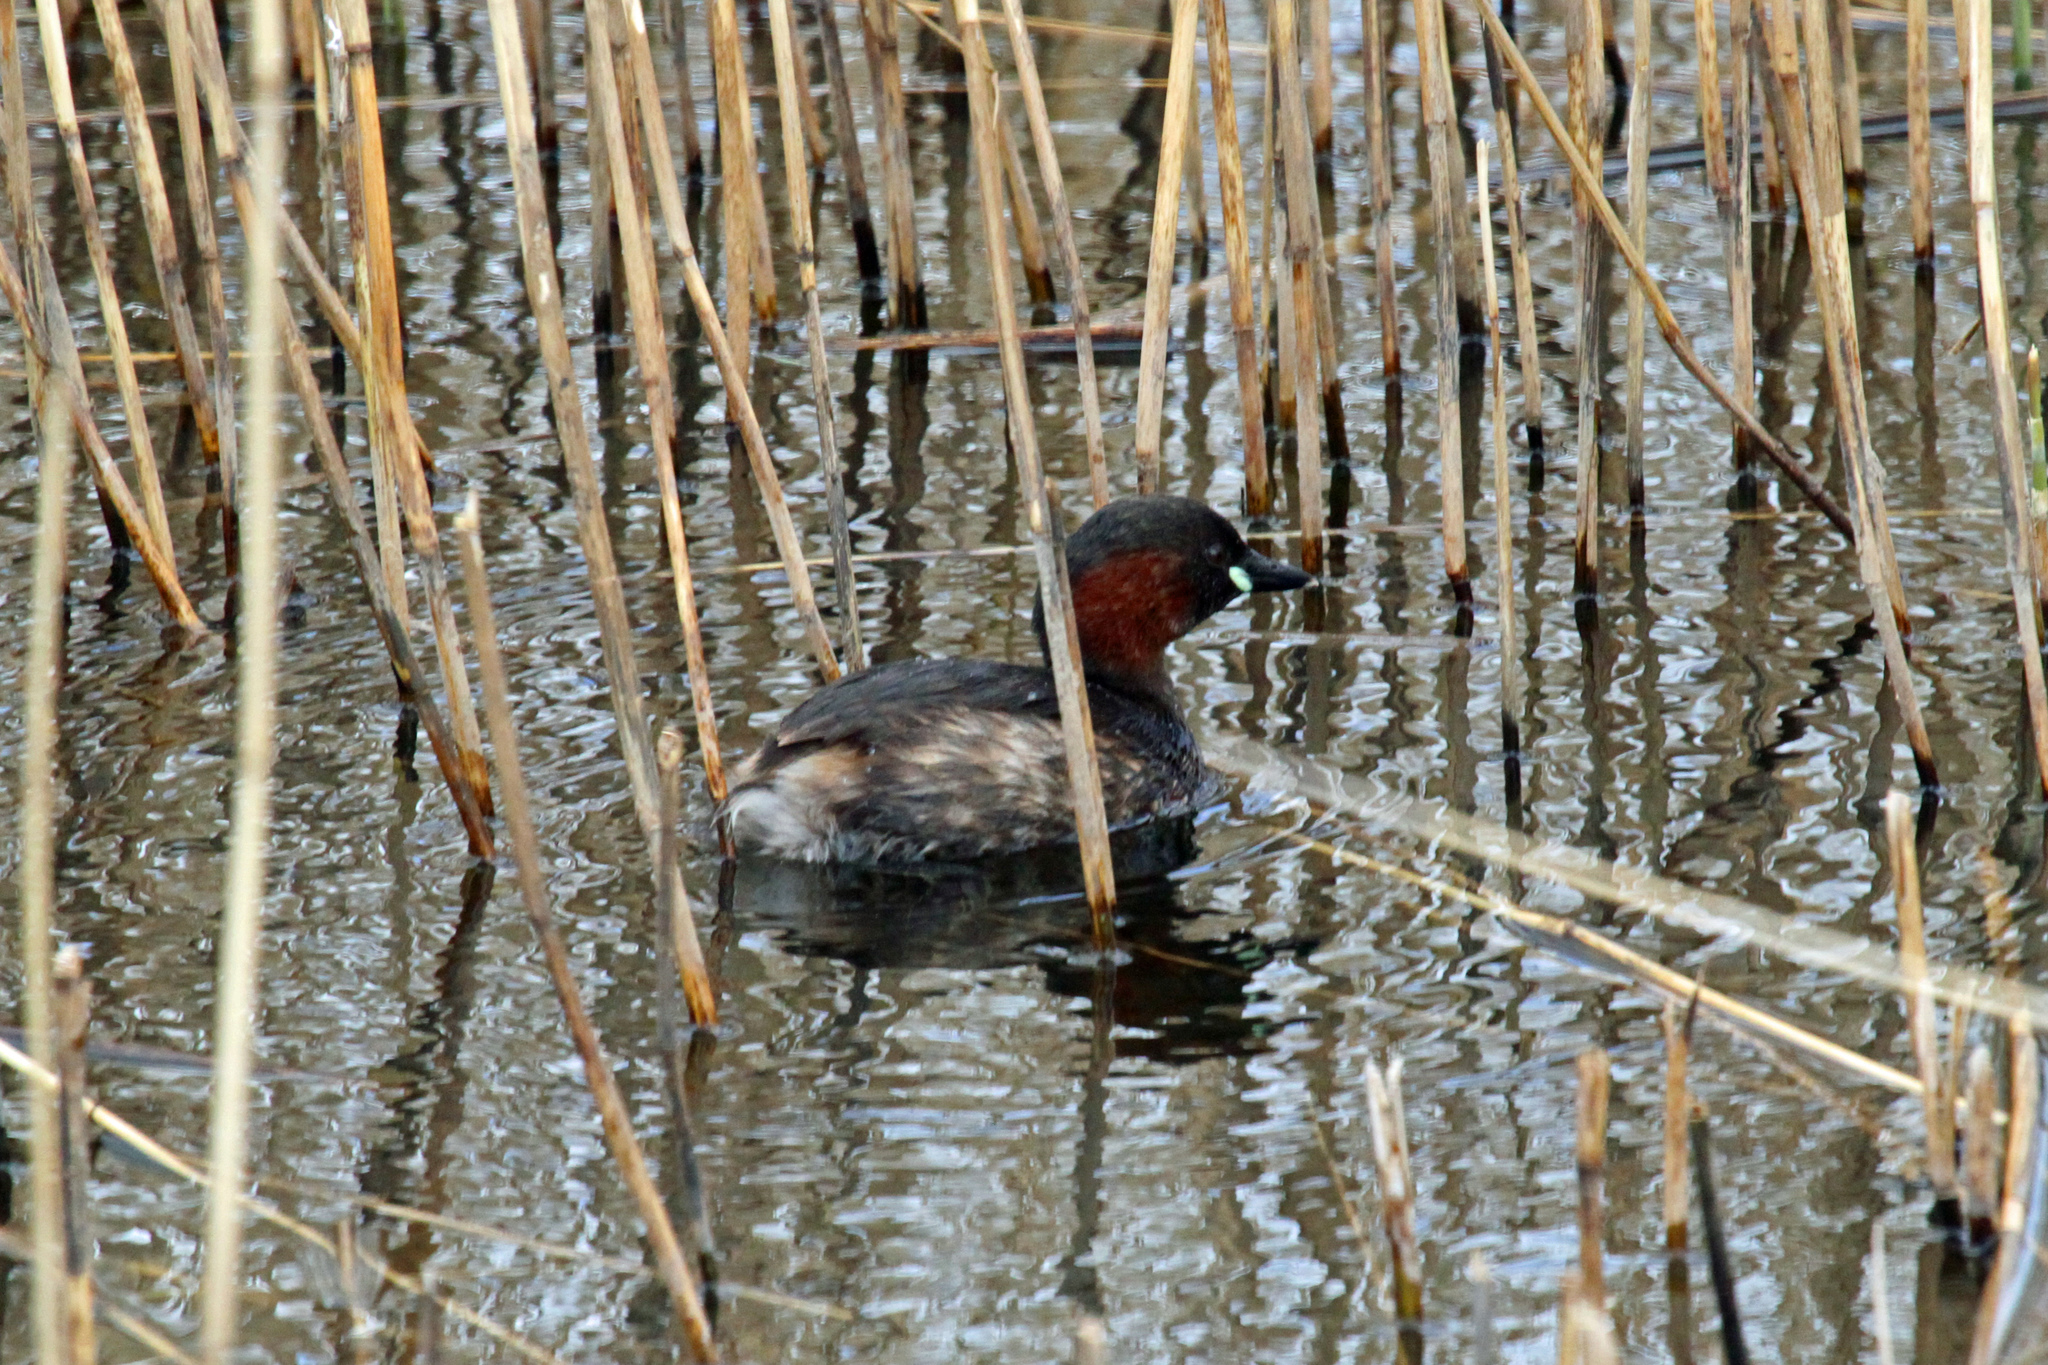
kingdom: Animalia
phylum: Chordata
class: Aves
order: Podicipediformes
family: Podicipedidae
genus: Tachybaptus
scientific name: Tachybaptus ruficollis
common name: Little grebe
